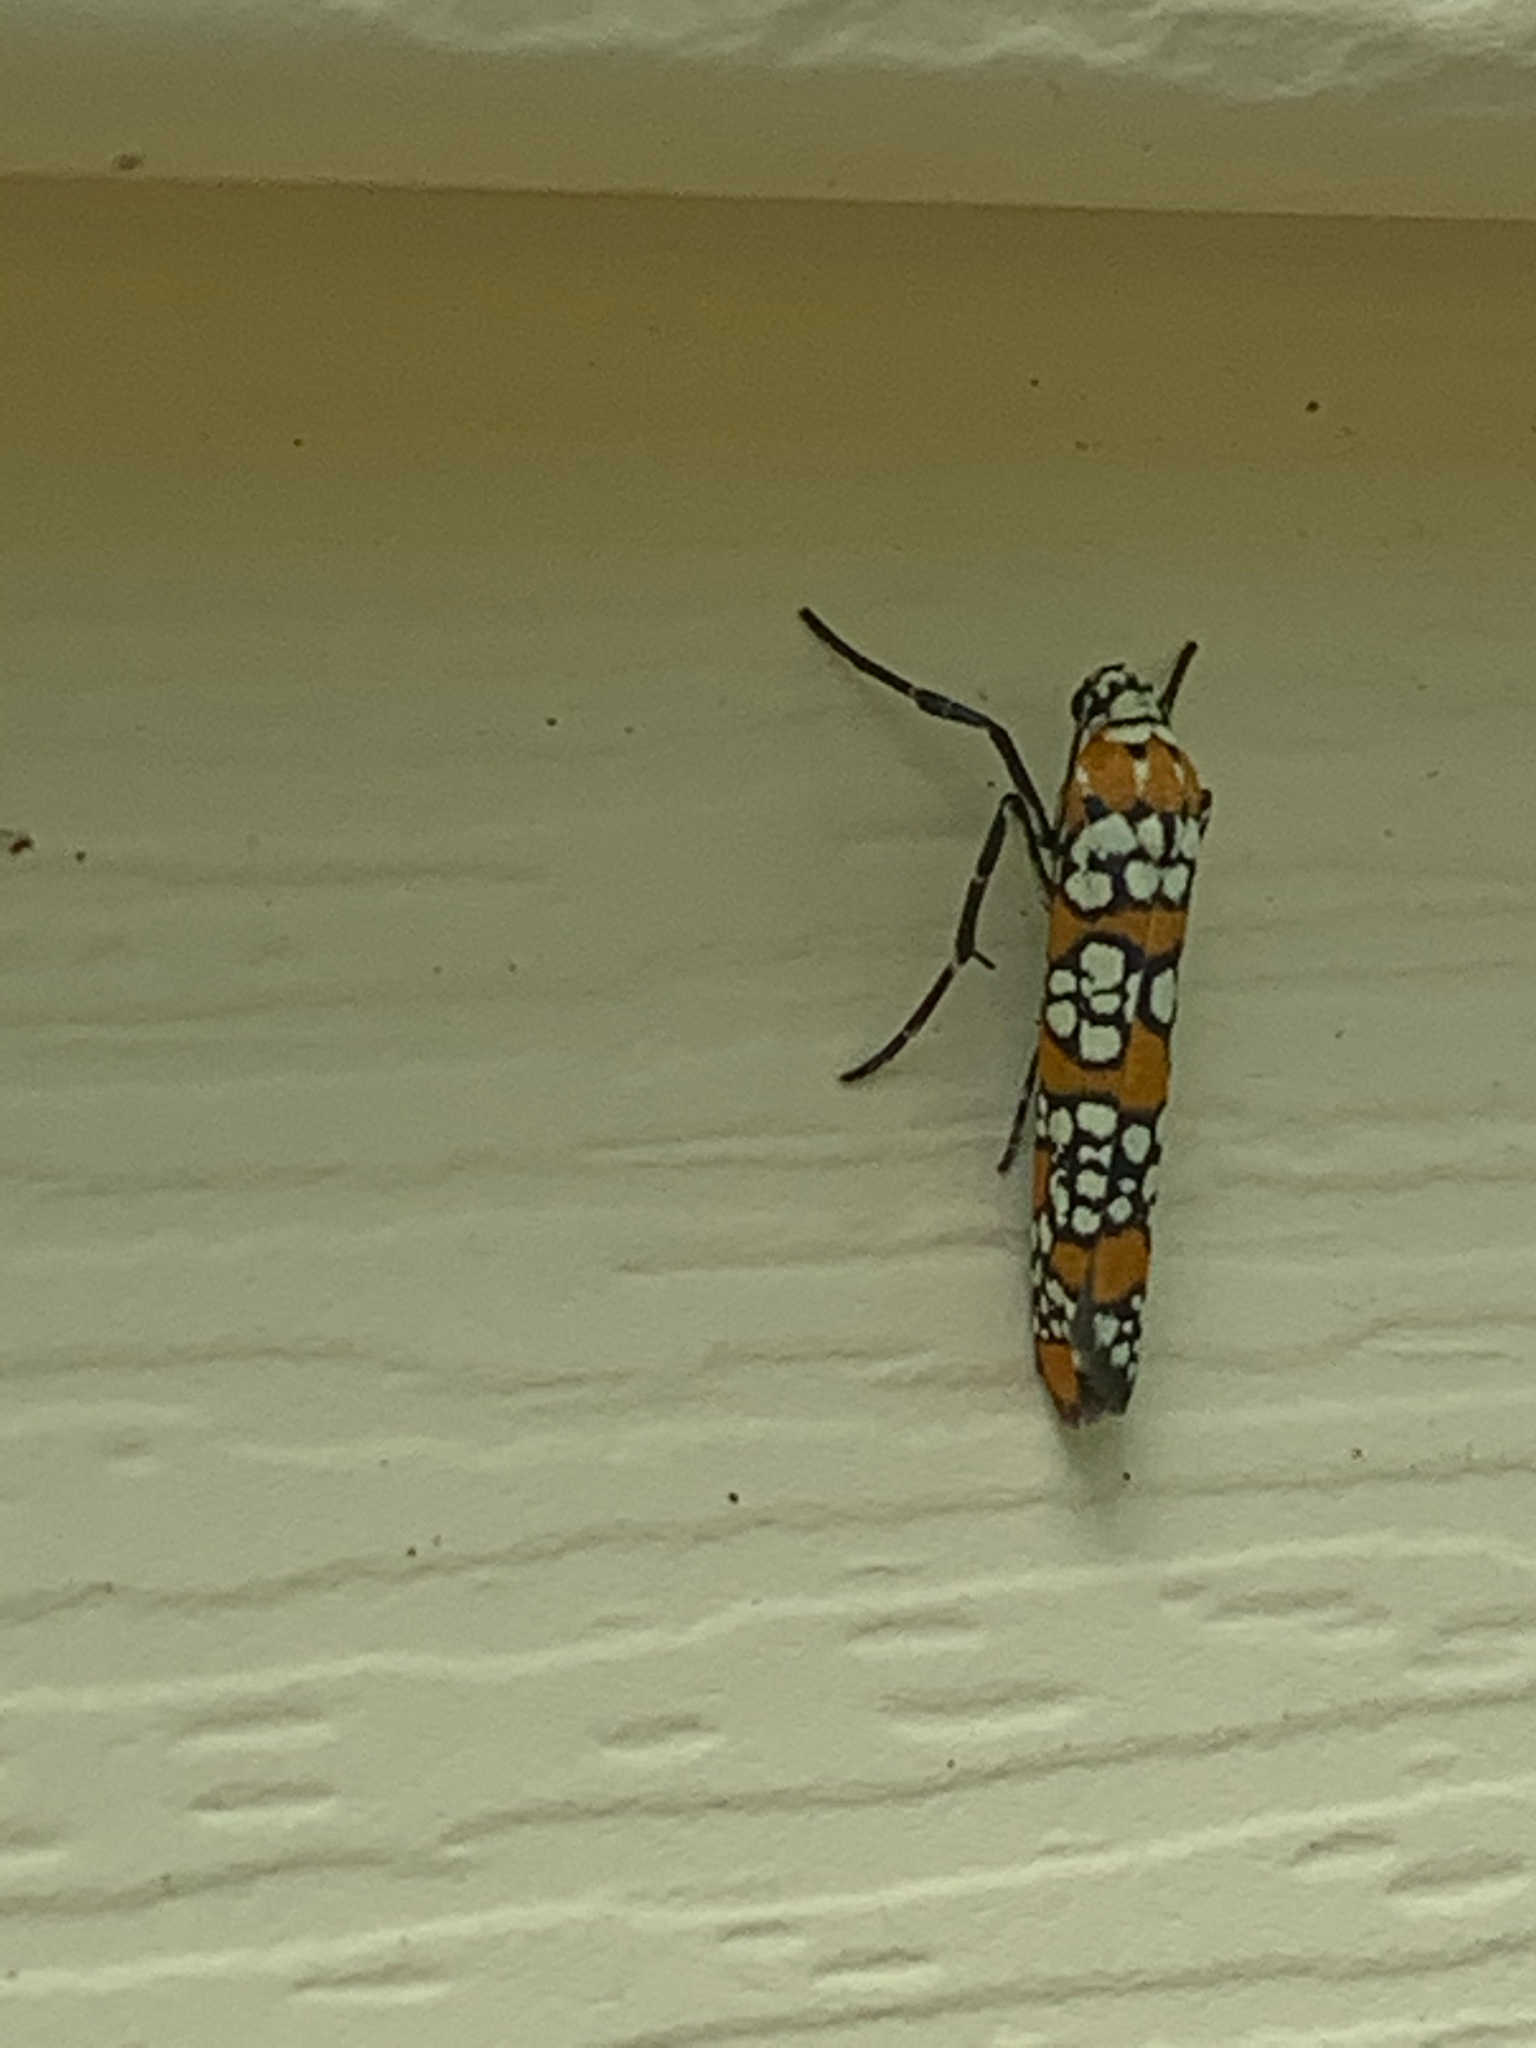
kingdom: Animalia
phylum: Arthropoda
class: Insecta
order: Lepidoptera
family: Attevidae
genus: Atteva
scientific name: Atteva punctella
